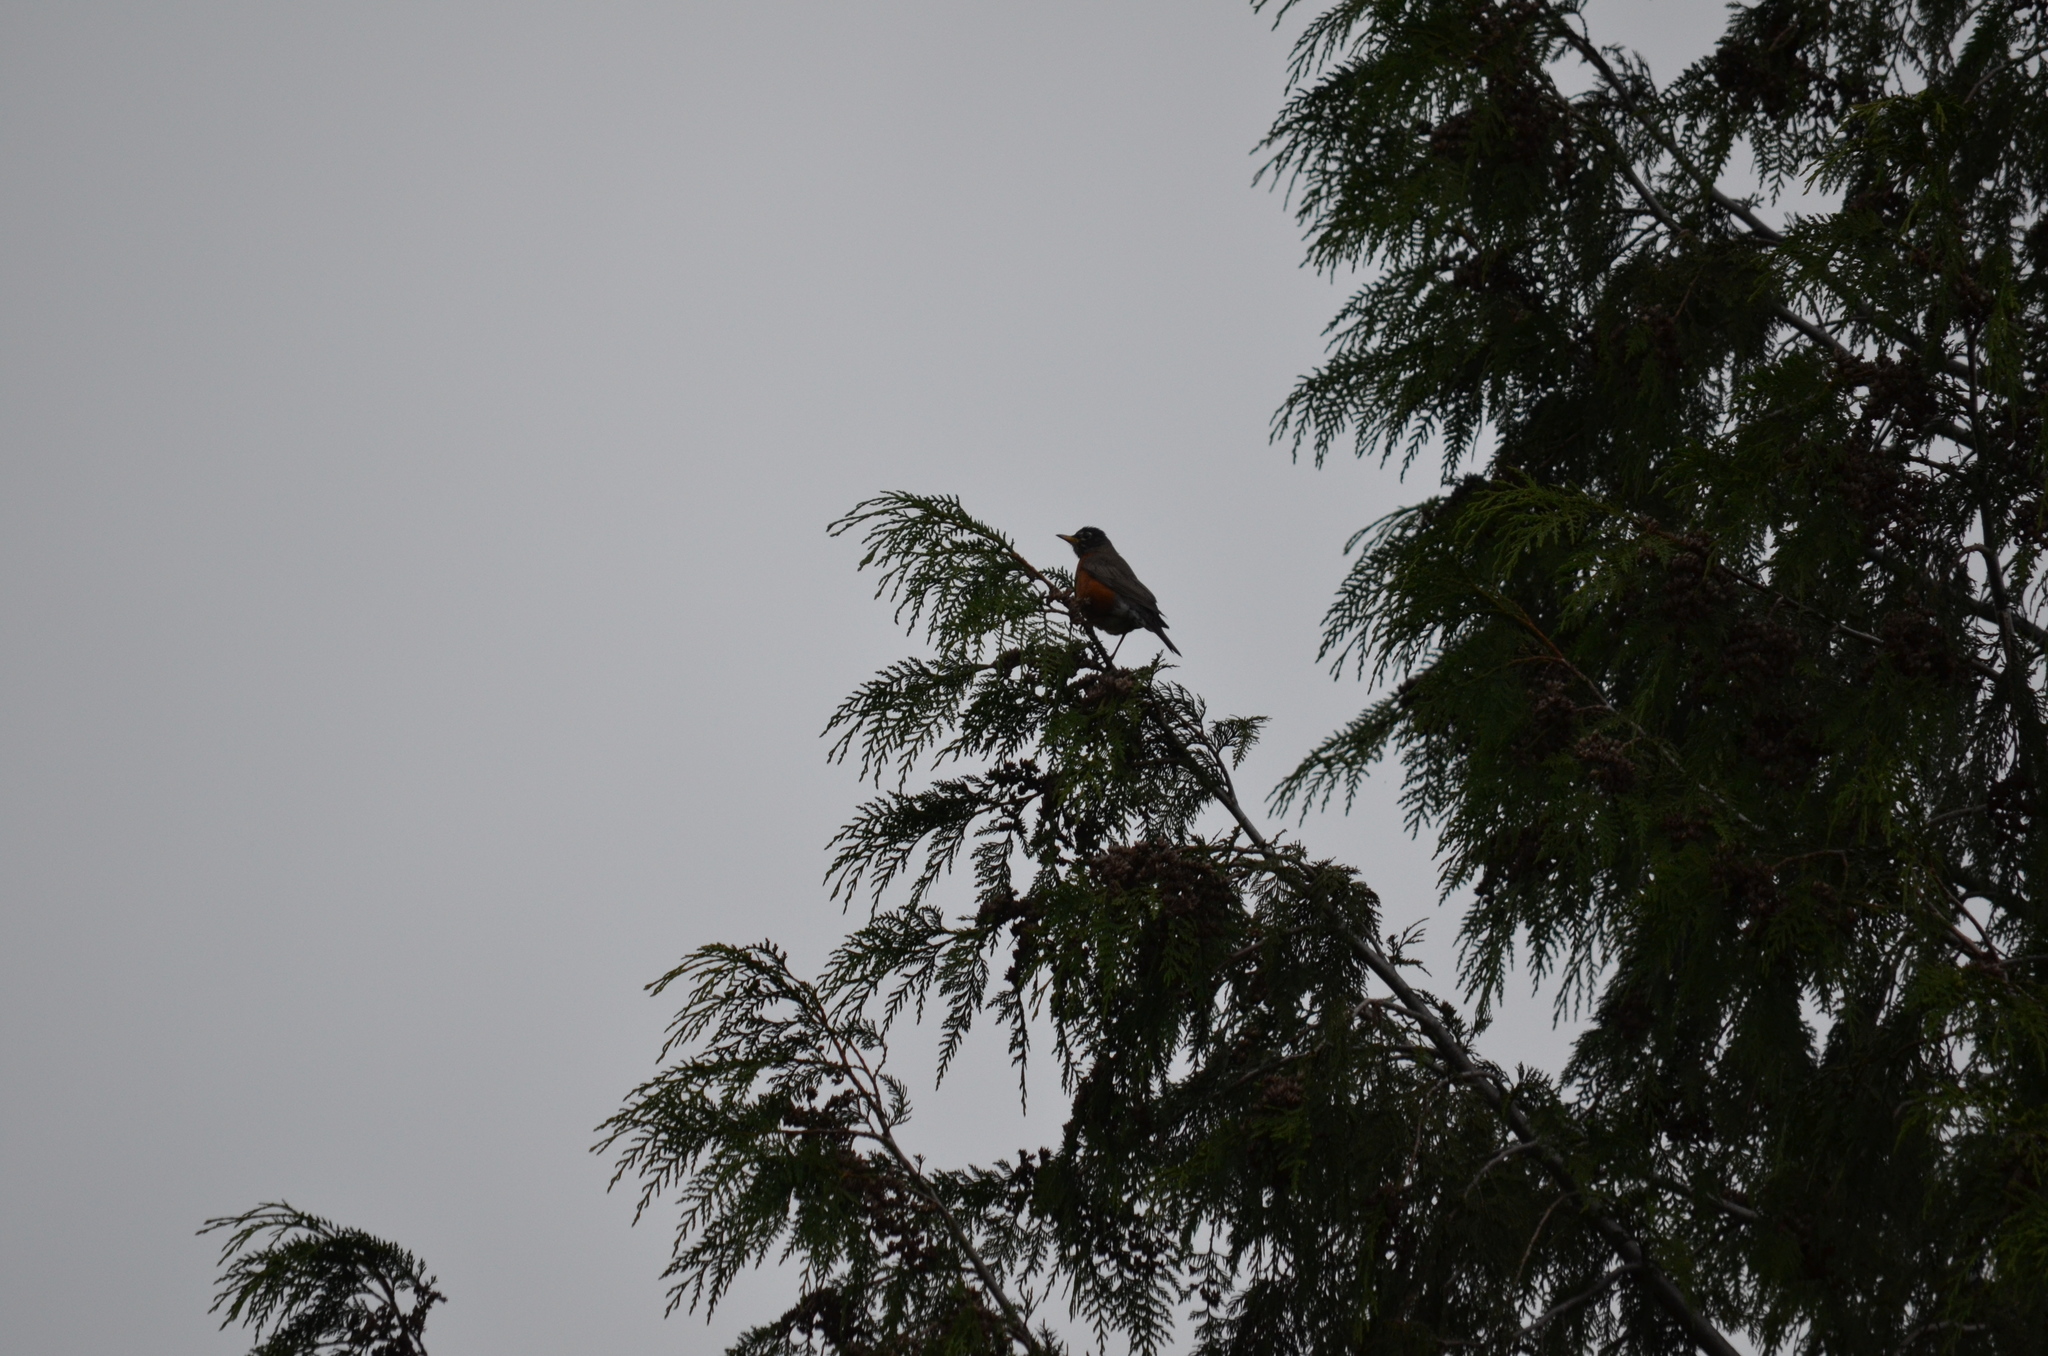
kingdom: Animalia
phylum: Chordata
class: Aves
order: Passeriformes
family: Turdidae
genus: Turdus
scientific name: Turdus migratorius
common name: American robin
